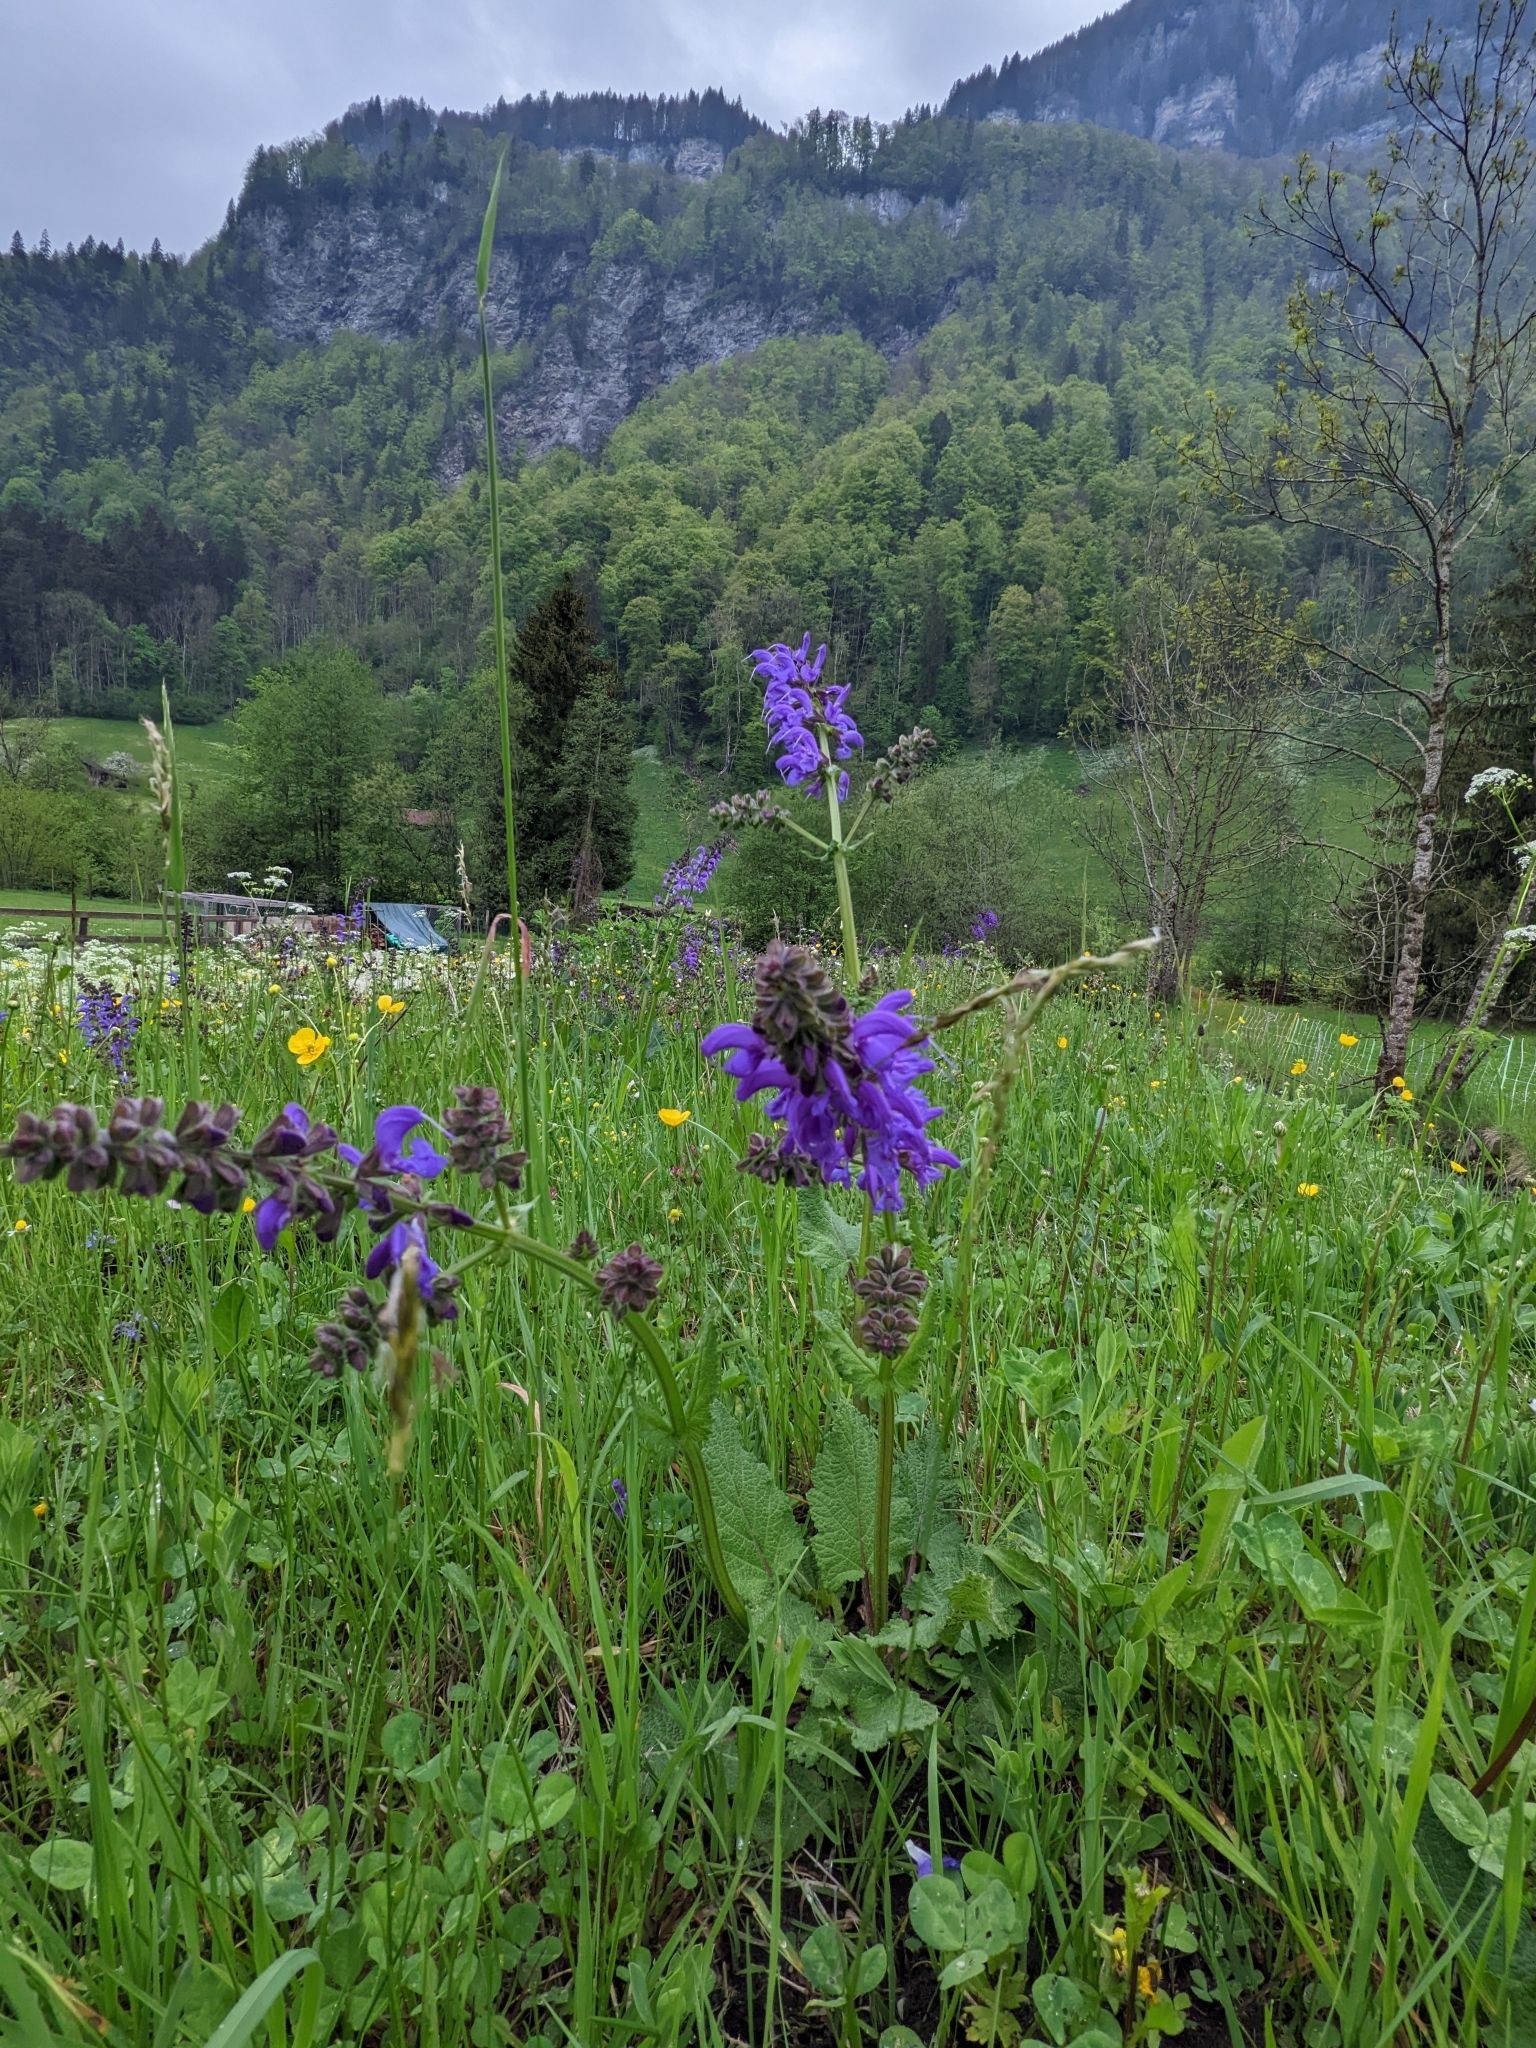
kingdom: Plantae
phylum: Tracheophyta
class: Magnoliopsida
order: Lamiales
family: Lamiaceae
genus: Salvia
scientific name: Salvia pratensis
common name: Meadow sage
